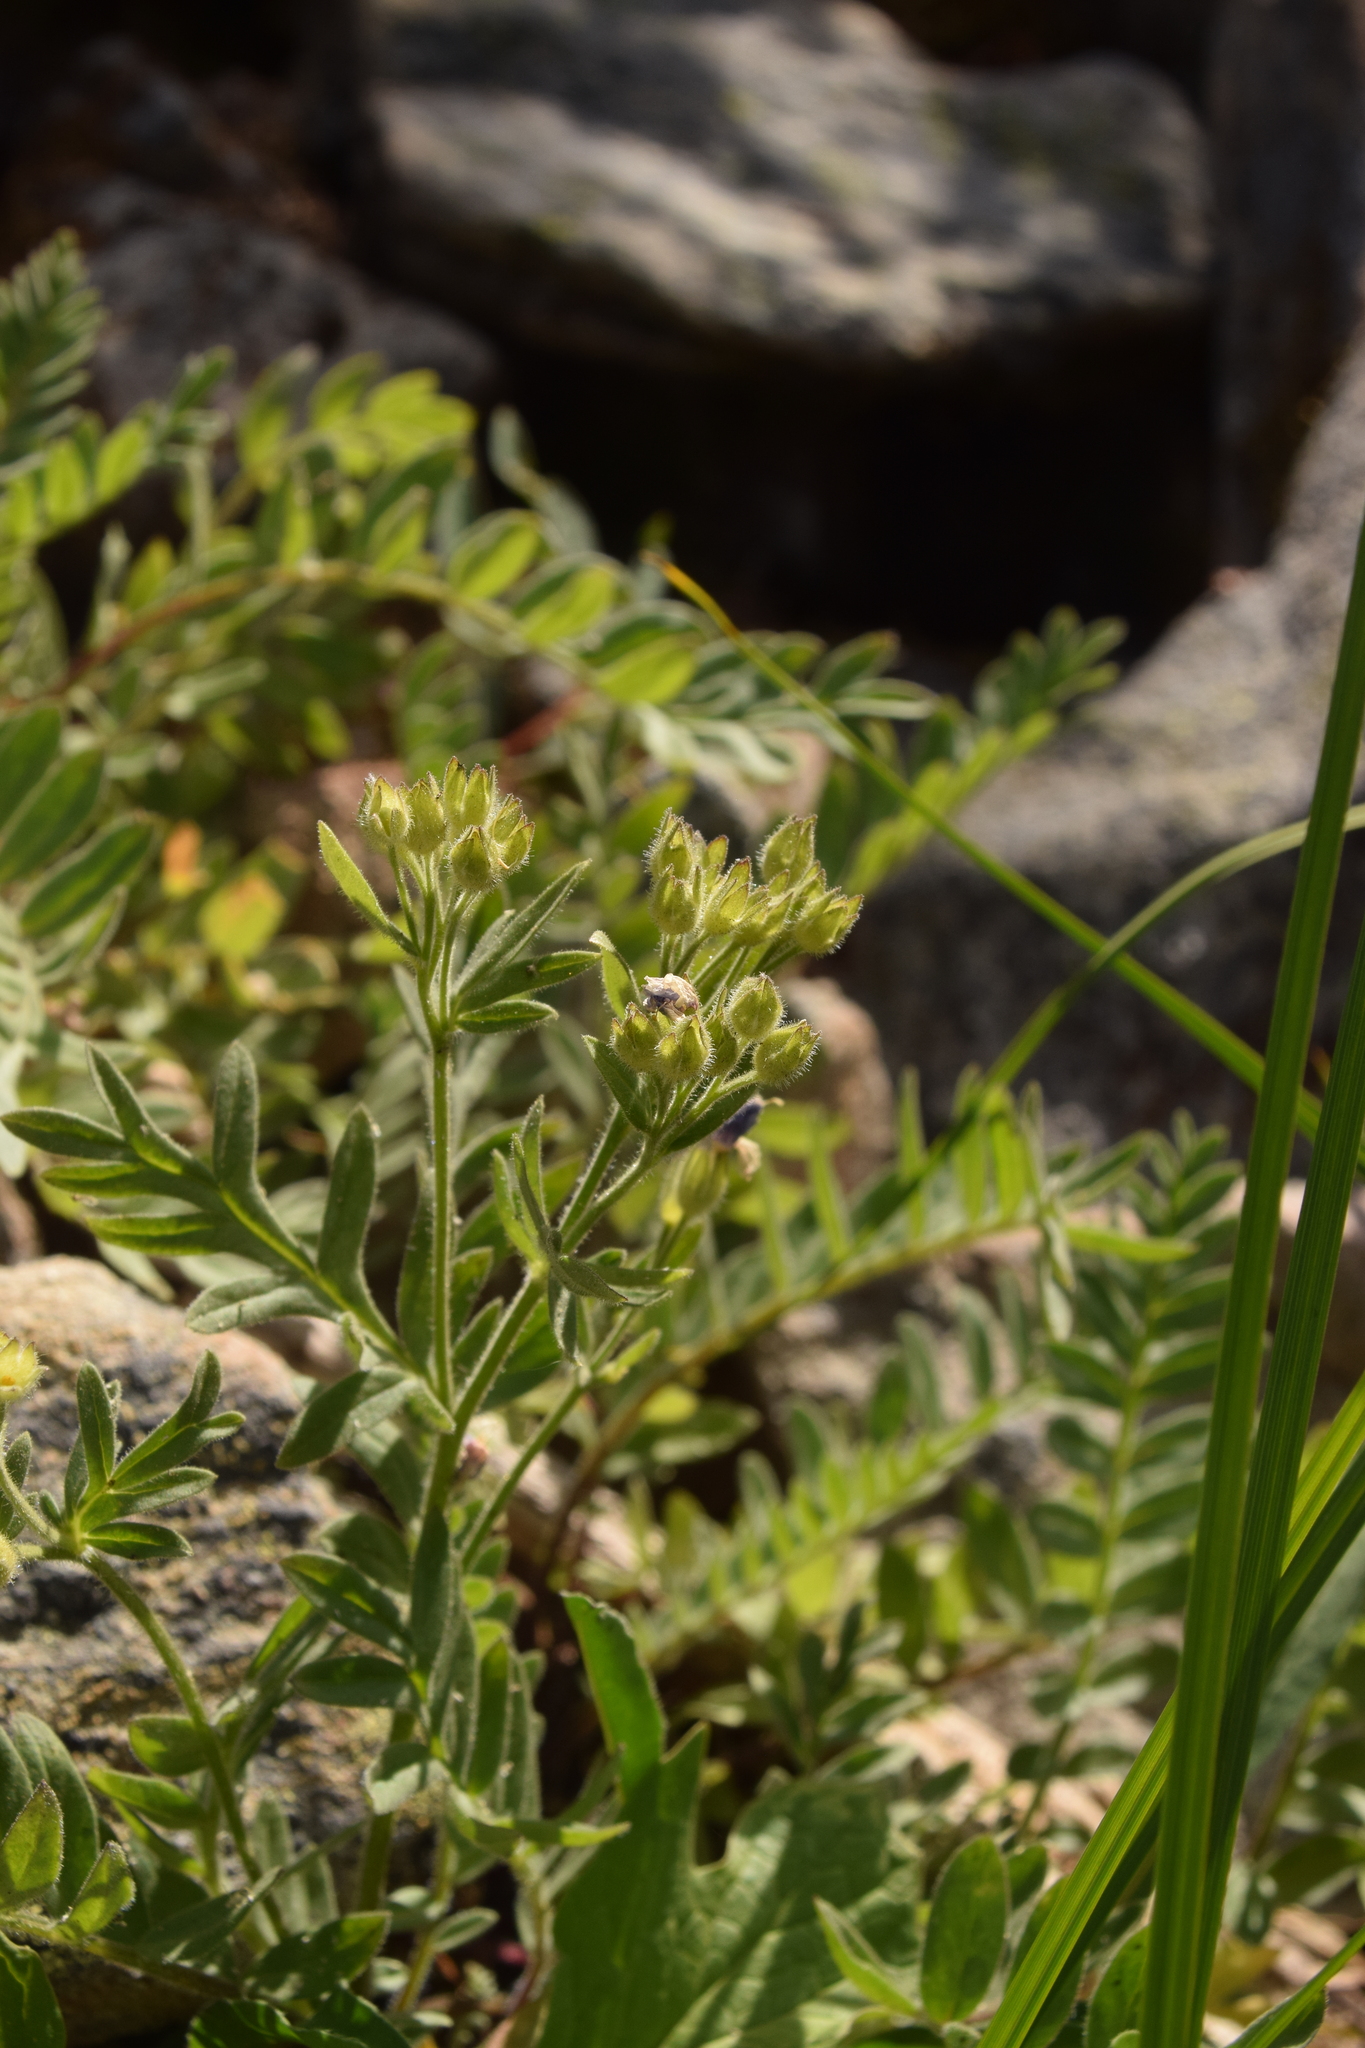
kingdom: Plantae
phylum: Tracheophyta
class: Magnoliopsida
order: Ericales
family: Polemoniaceae
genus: Polemonium
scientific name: Polemonium californicum
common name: California jacob's ladder
